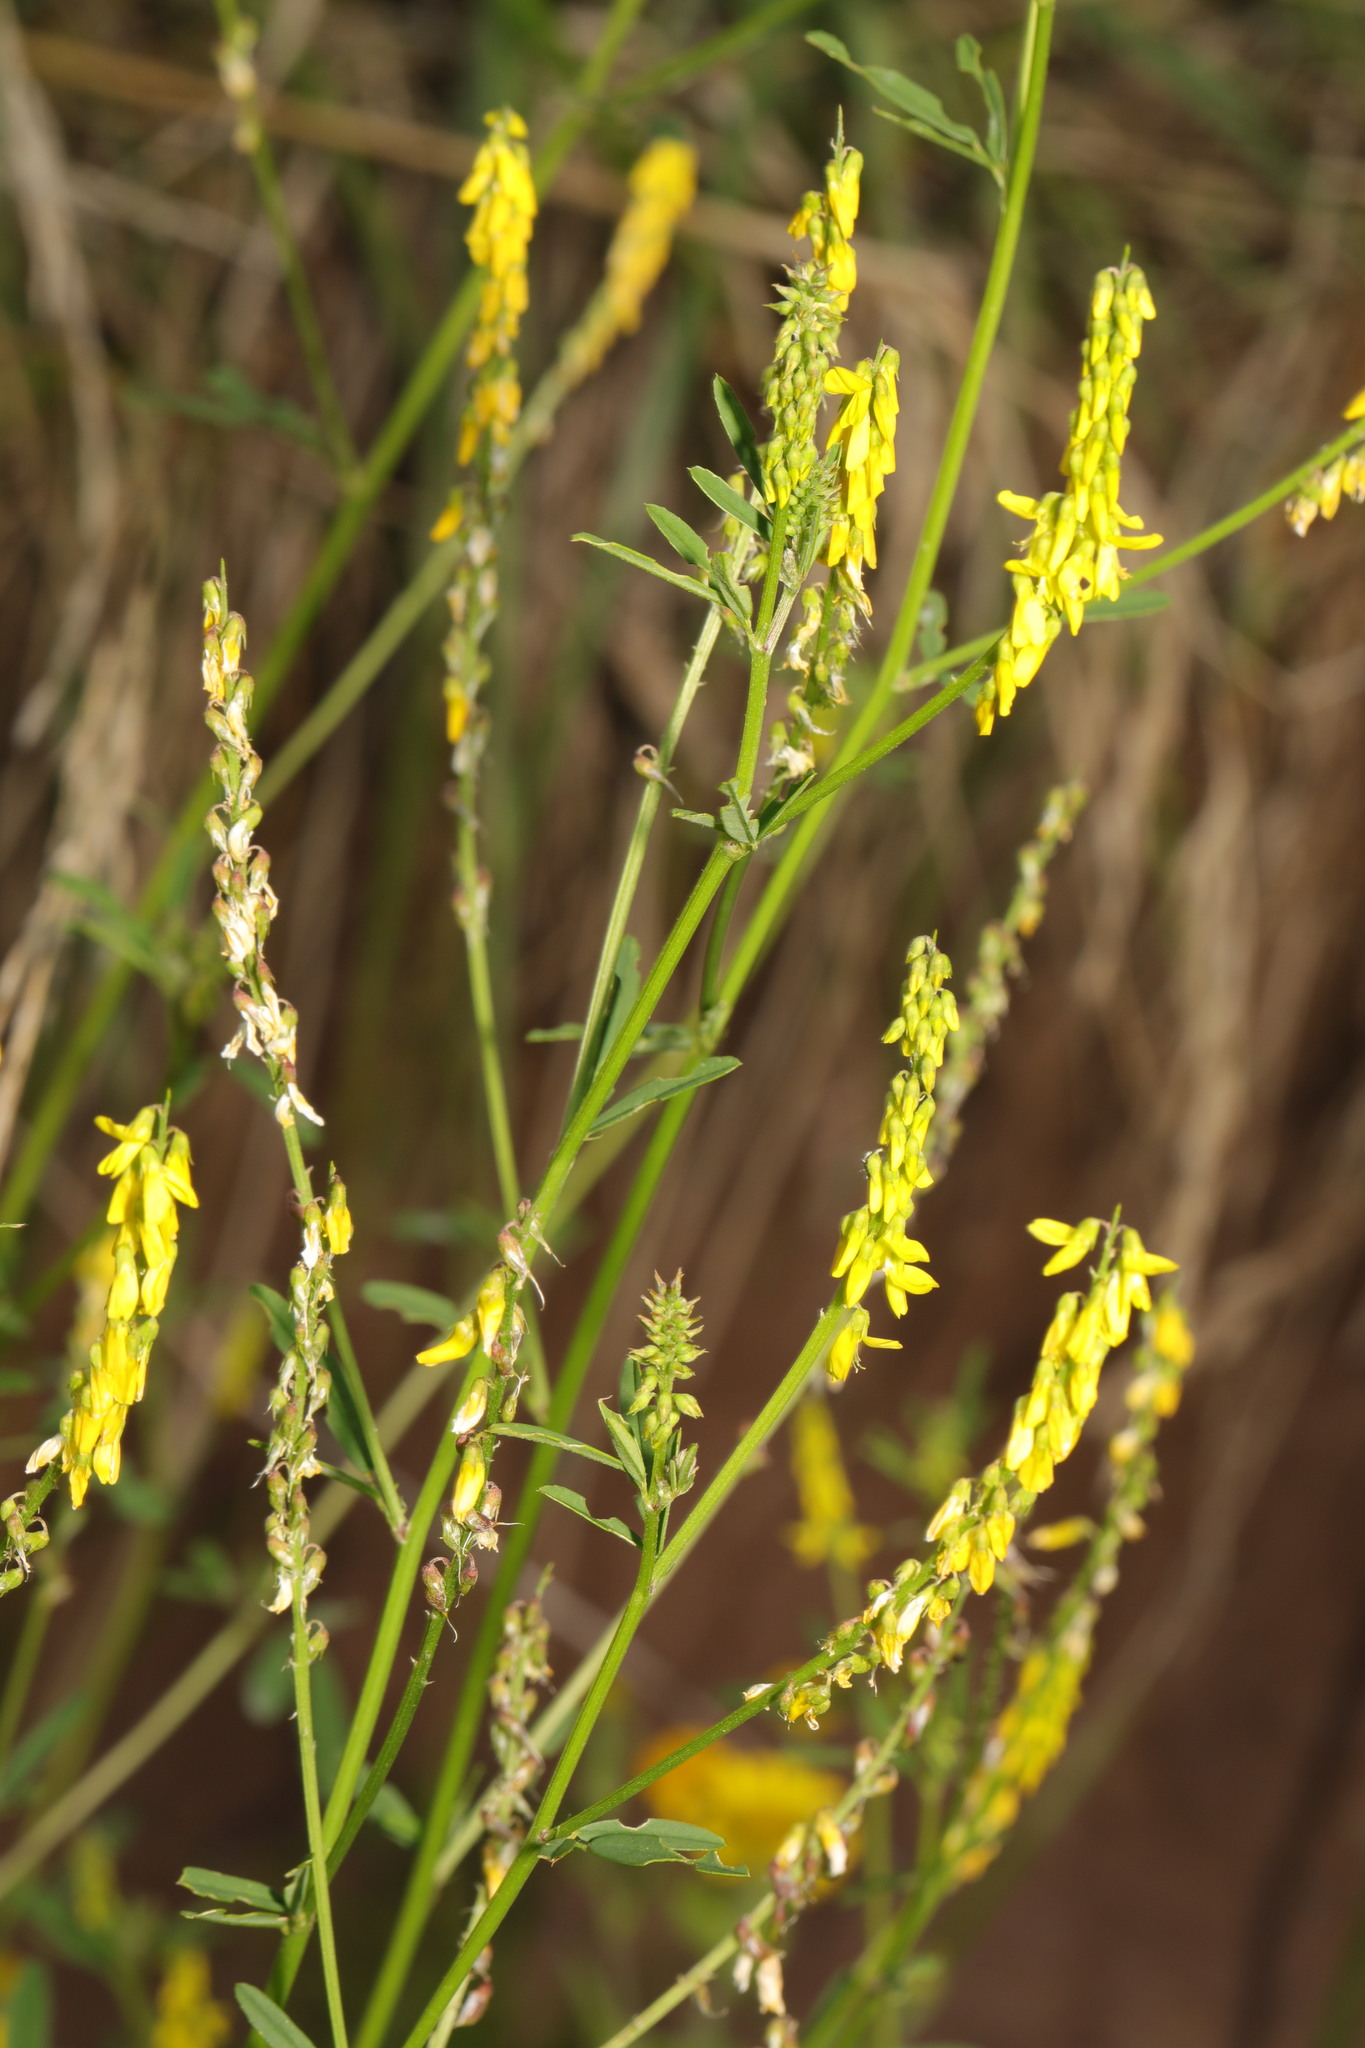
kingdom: Plantae
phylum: Tracheophyta
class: Magnoliopsida
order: Fabales
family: Fabaceae
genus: Melilotus
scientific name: Melilotus officinalis
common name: Sweetclover
